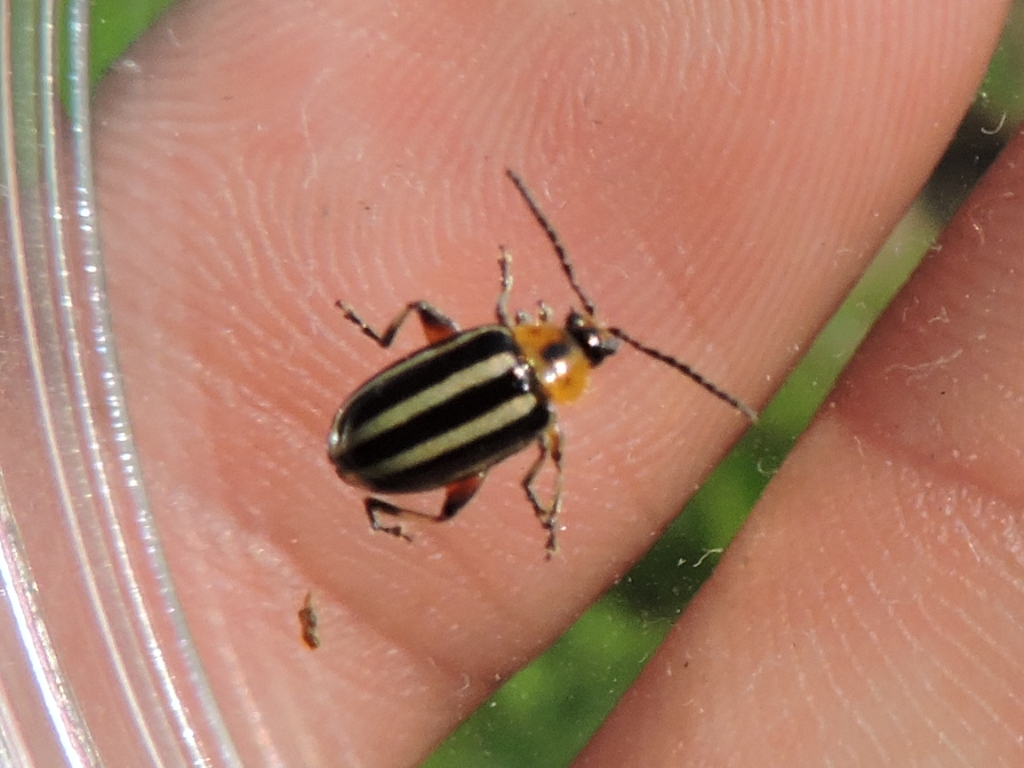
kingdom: Animalia
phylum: Arthropoda
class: Insecta
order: Coleoptera
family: Chrysomelidae
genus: Disonycha
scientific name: Disonycha glabrata
